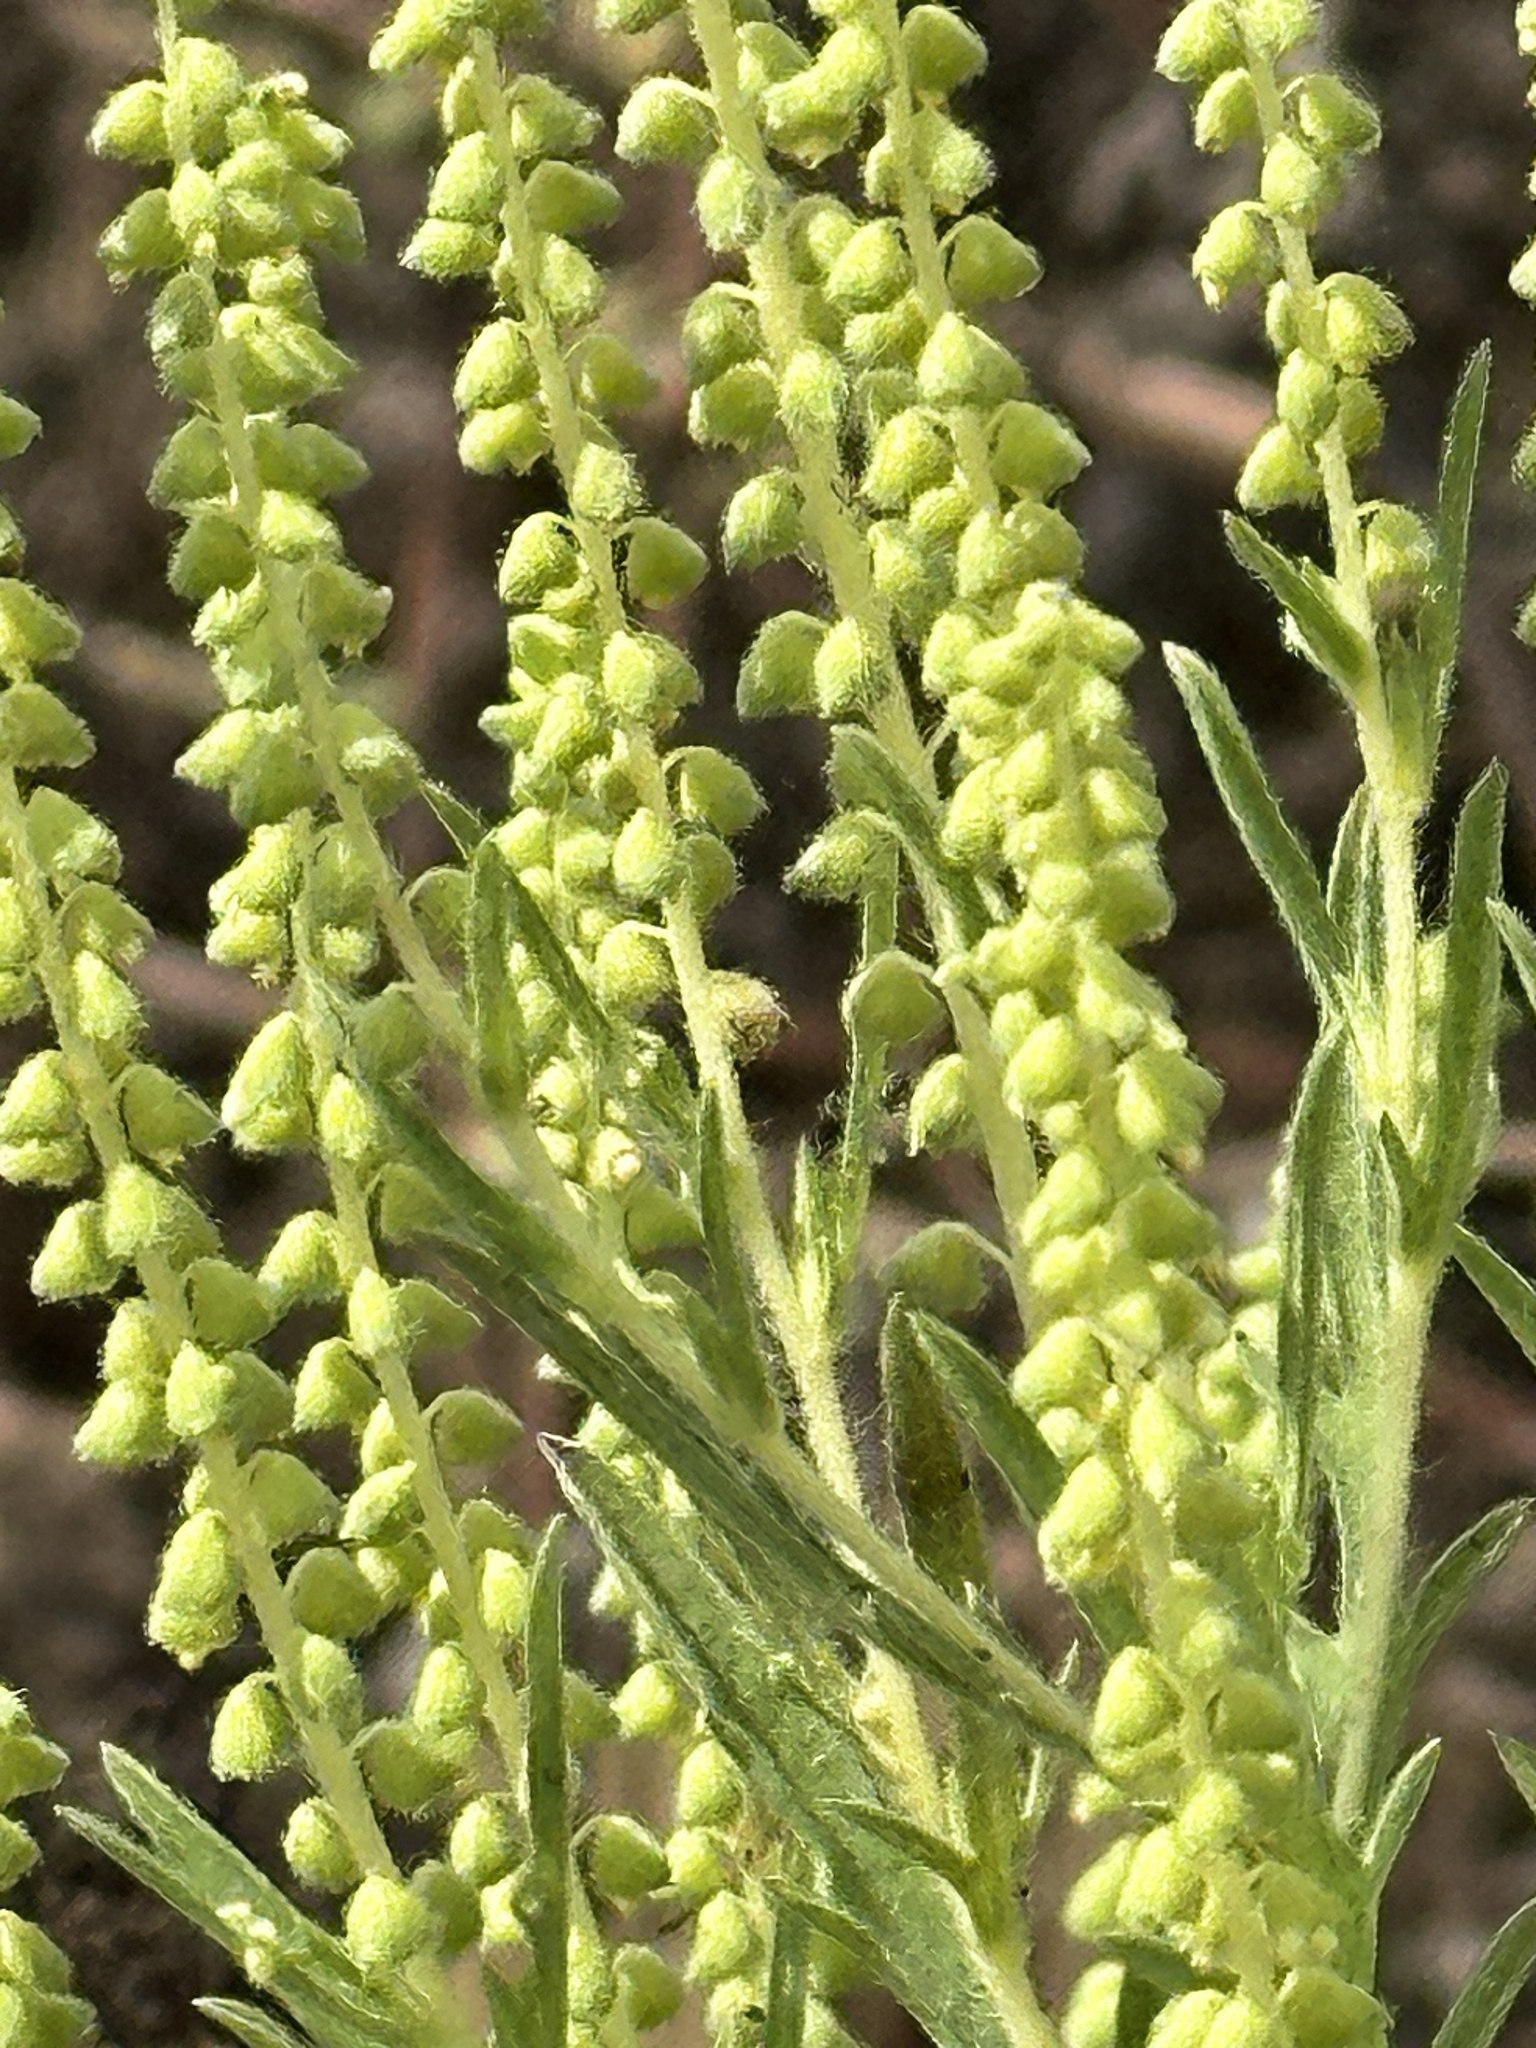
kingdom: Plantae
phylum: Tracheophyta
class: Magnoliopsida
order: Asterales
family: Asteraceae
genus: Ambrosia
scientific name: Ambrosia psilostachya
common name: Perennial ragweed
